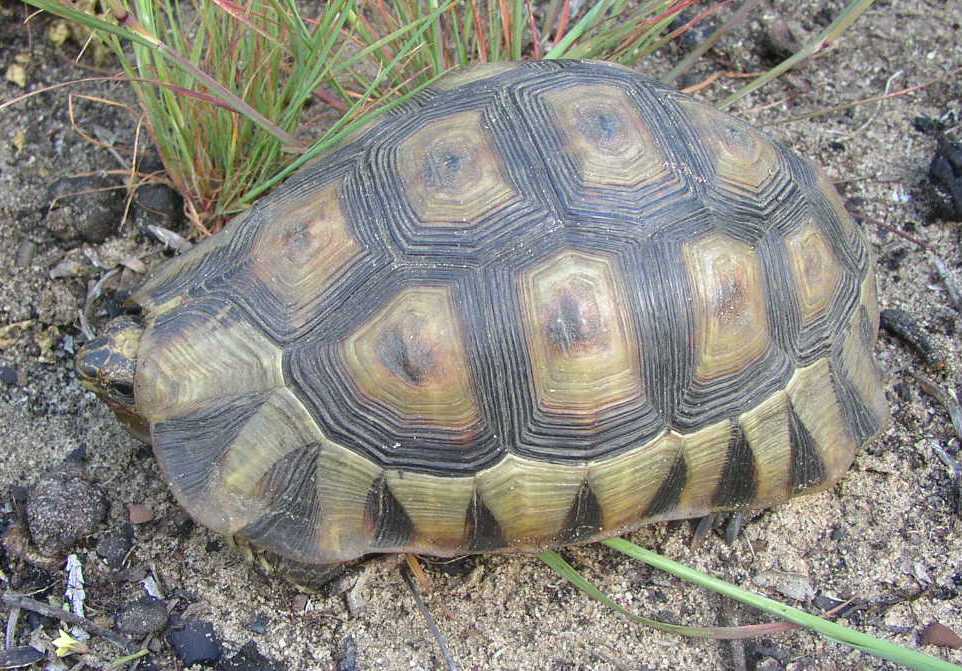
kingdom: Animalia
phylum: Chordata
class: Testudines
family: Testudinidae
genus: Chersina
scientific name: Chersina angulata
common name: South african bowsprit tortoise
